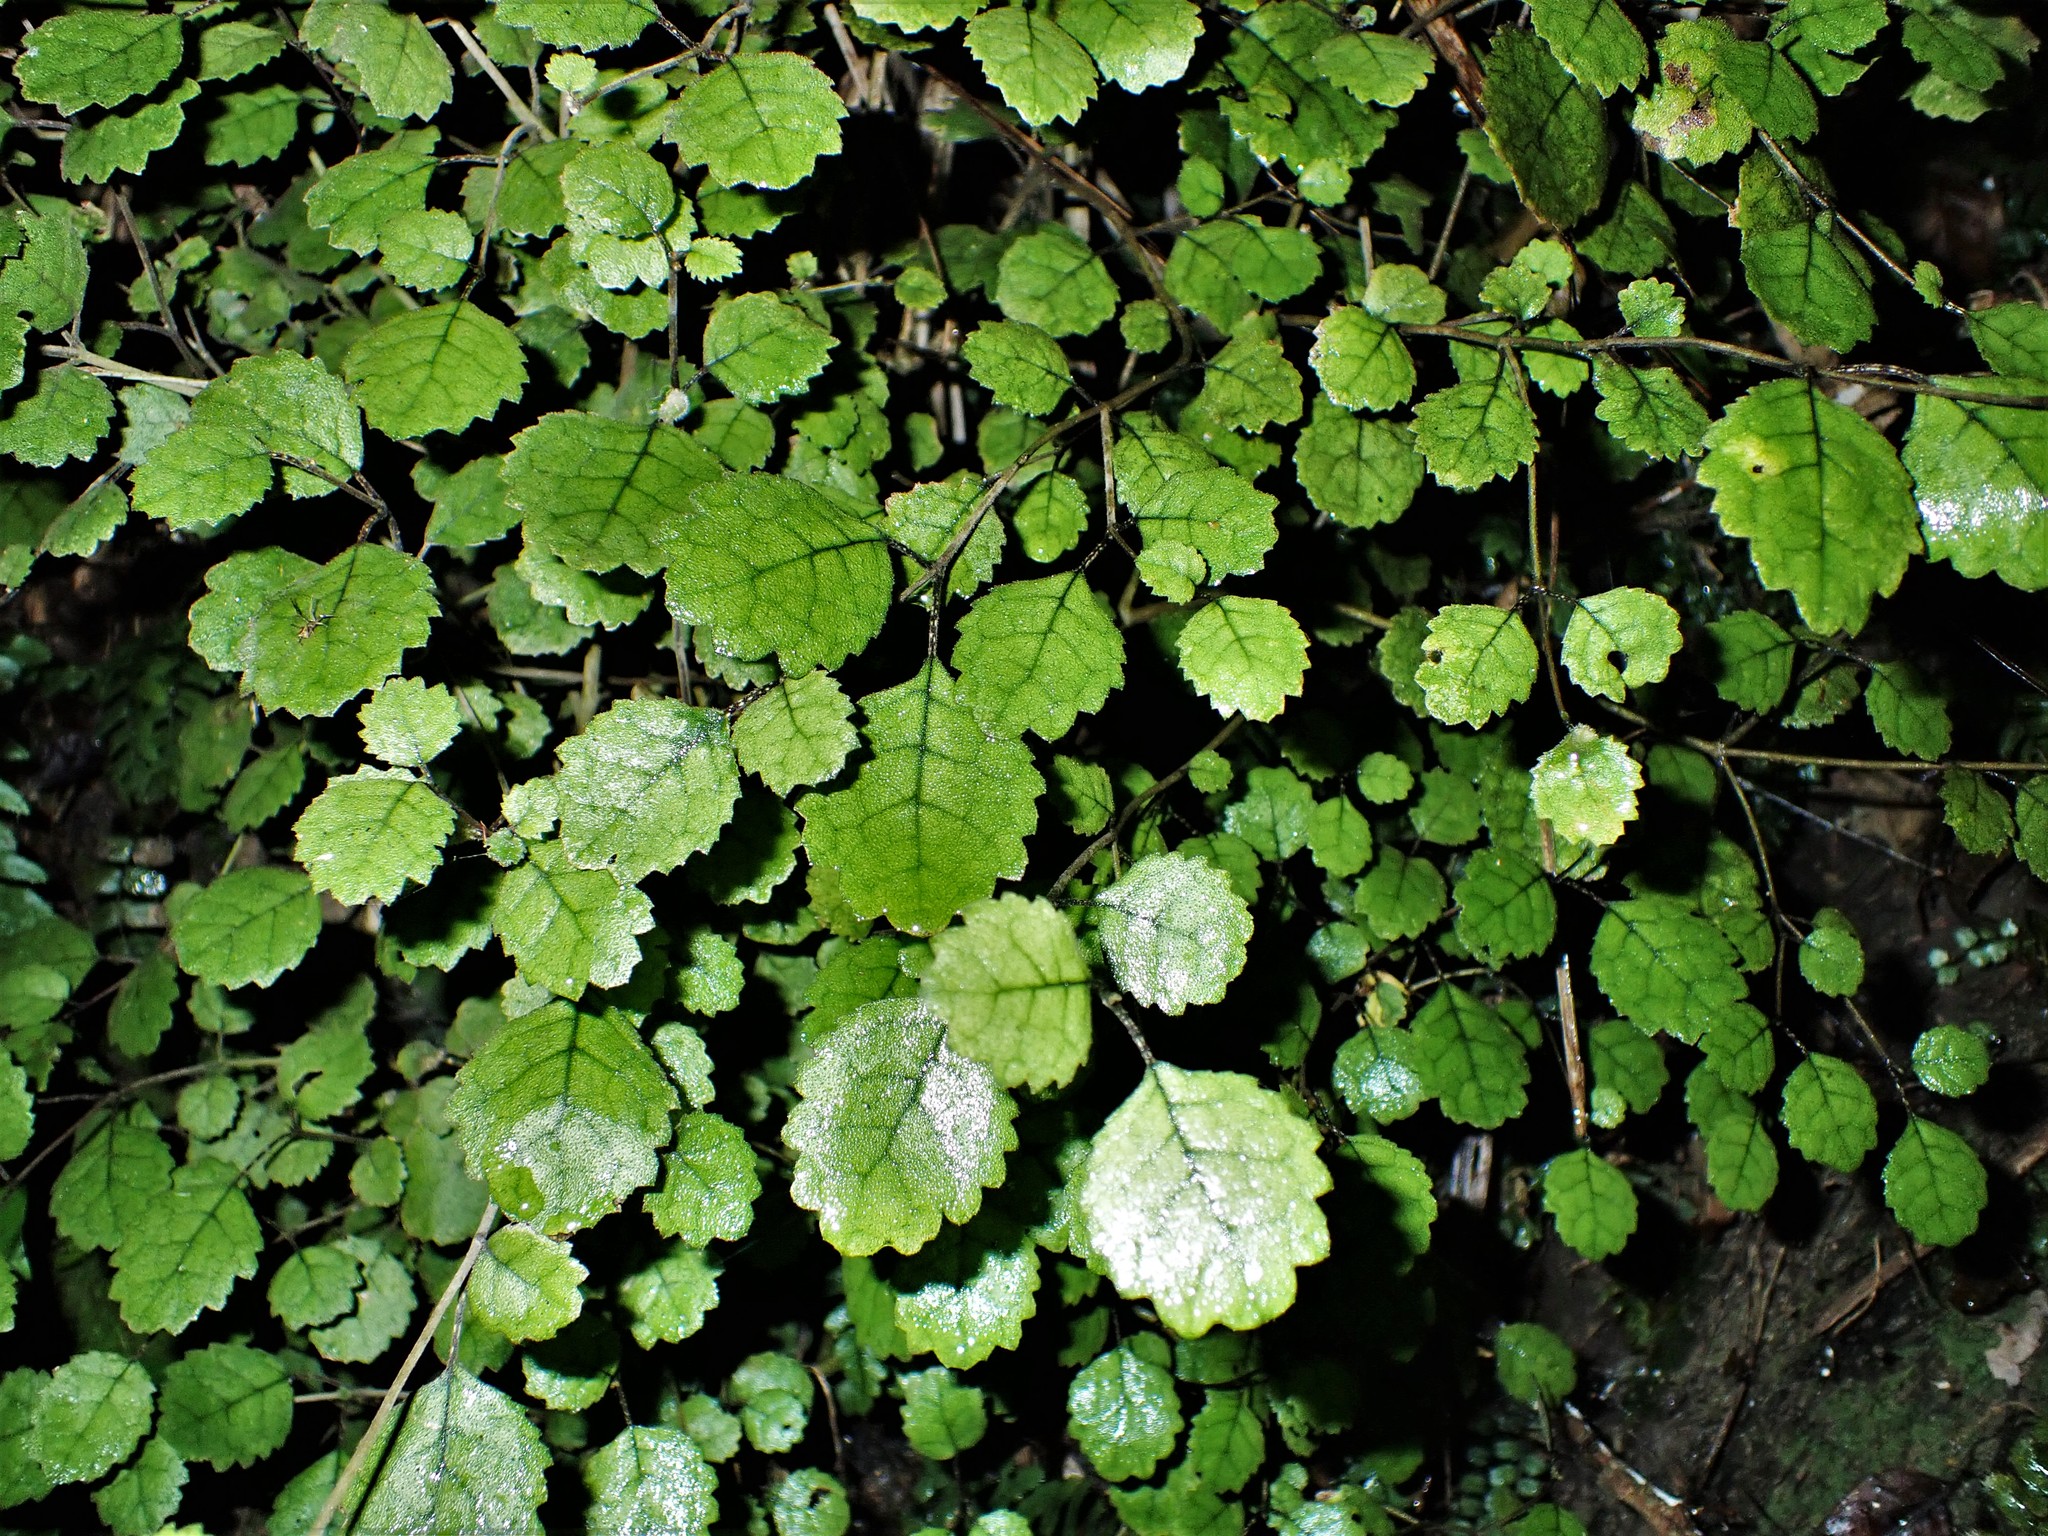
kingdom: Plantae
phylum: Tracheophyta
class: Magnoliopsida
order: Rosales
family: Rosaceae
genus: Rubus
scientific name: Rubus australis
